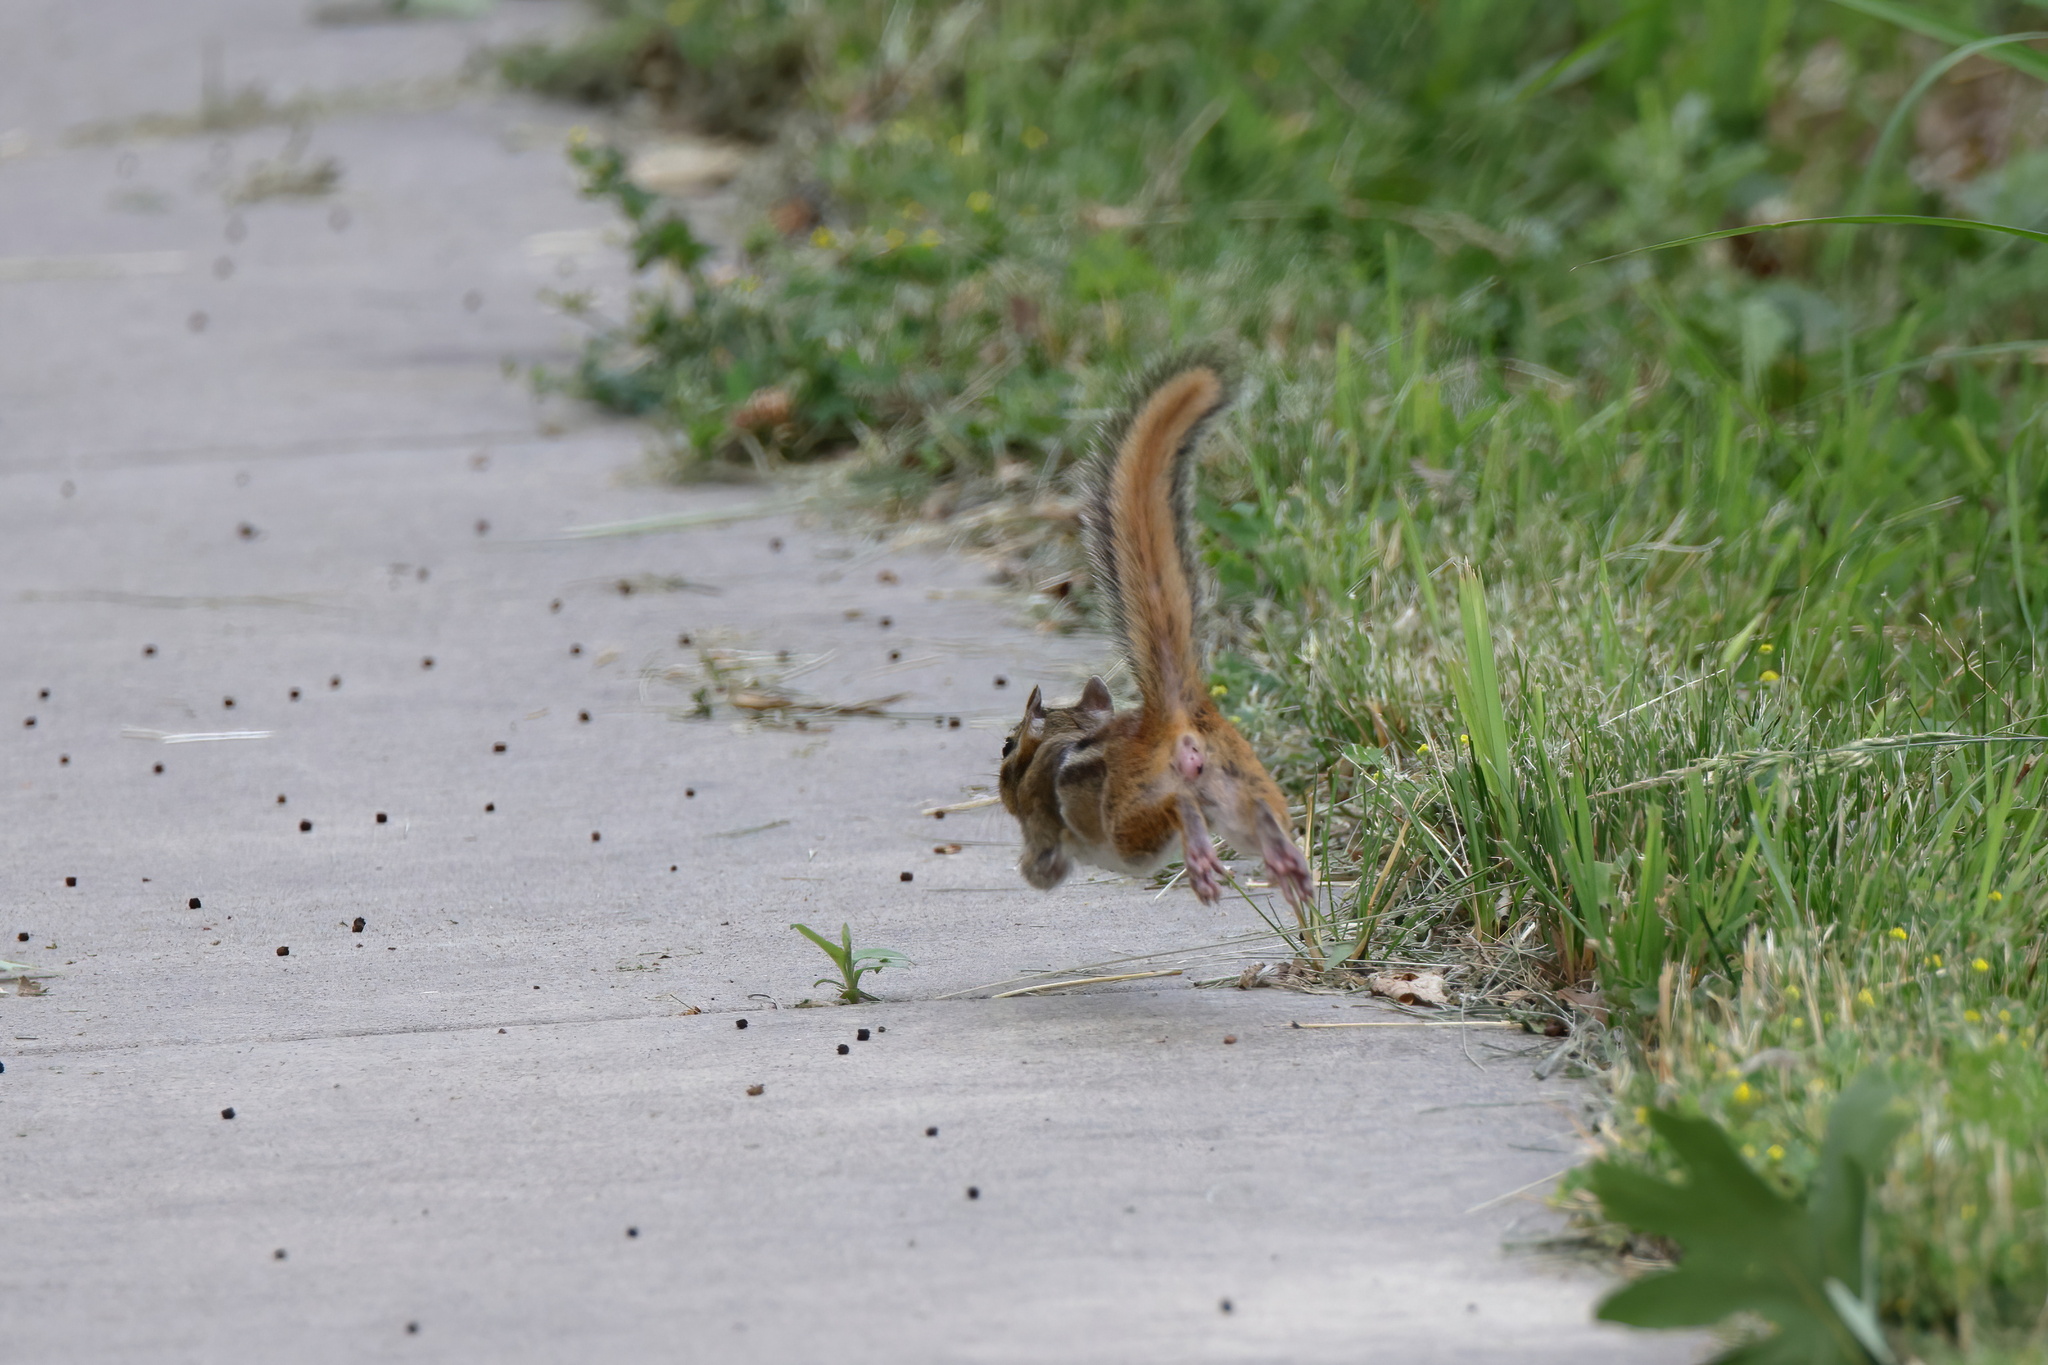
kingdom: Animalia
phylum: Chordata
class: Mammalia
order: Rodentia
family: Sciuridae
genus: Tamias
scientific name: Tamias striatus
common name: Eastern chipmunk
